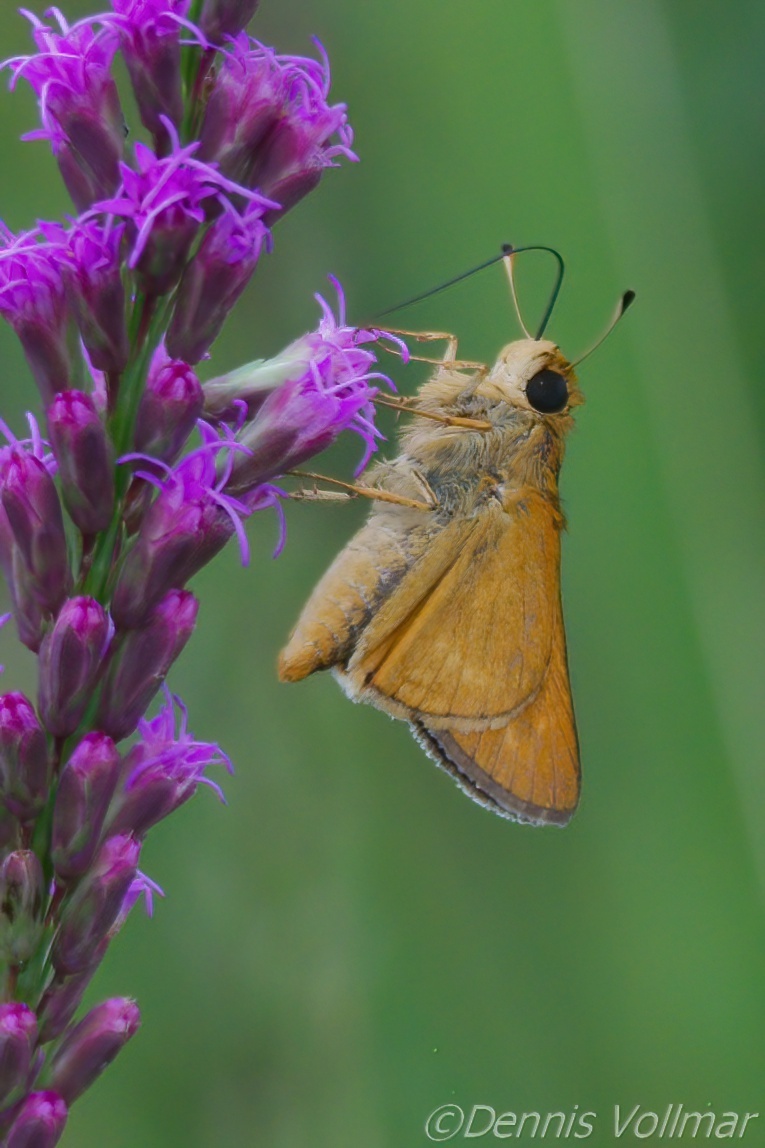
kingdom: Animalia
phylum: Arthropoda
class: Insecta
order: Lepidoptera
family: Hesperiidae
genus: Hesperia
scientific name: Hesperia meskei
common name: Meske's skipper
